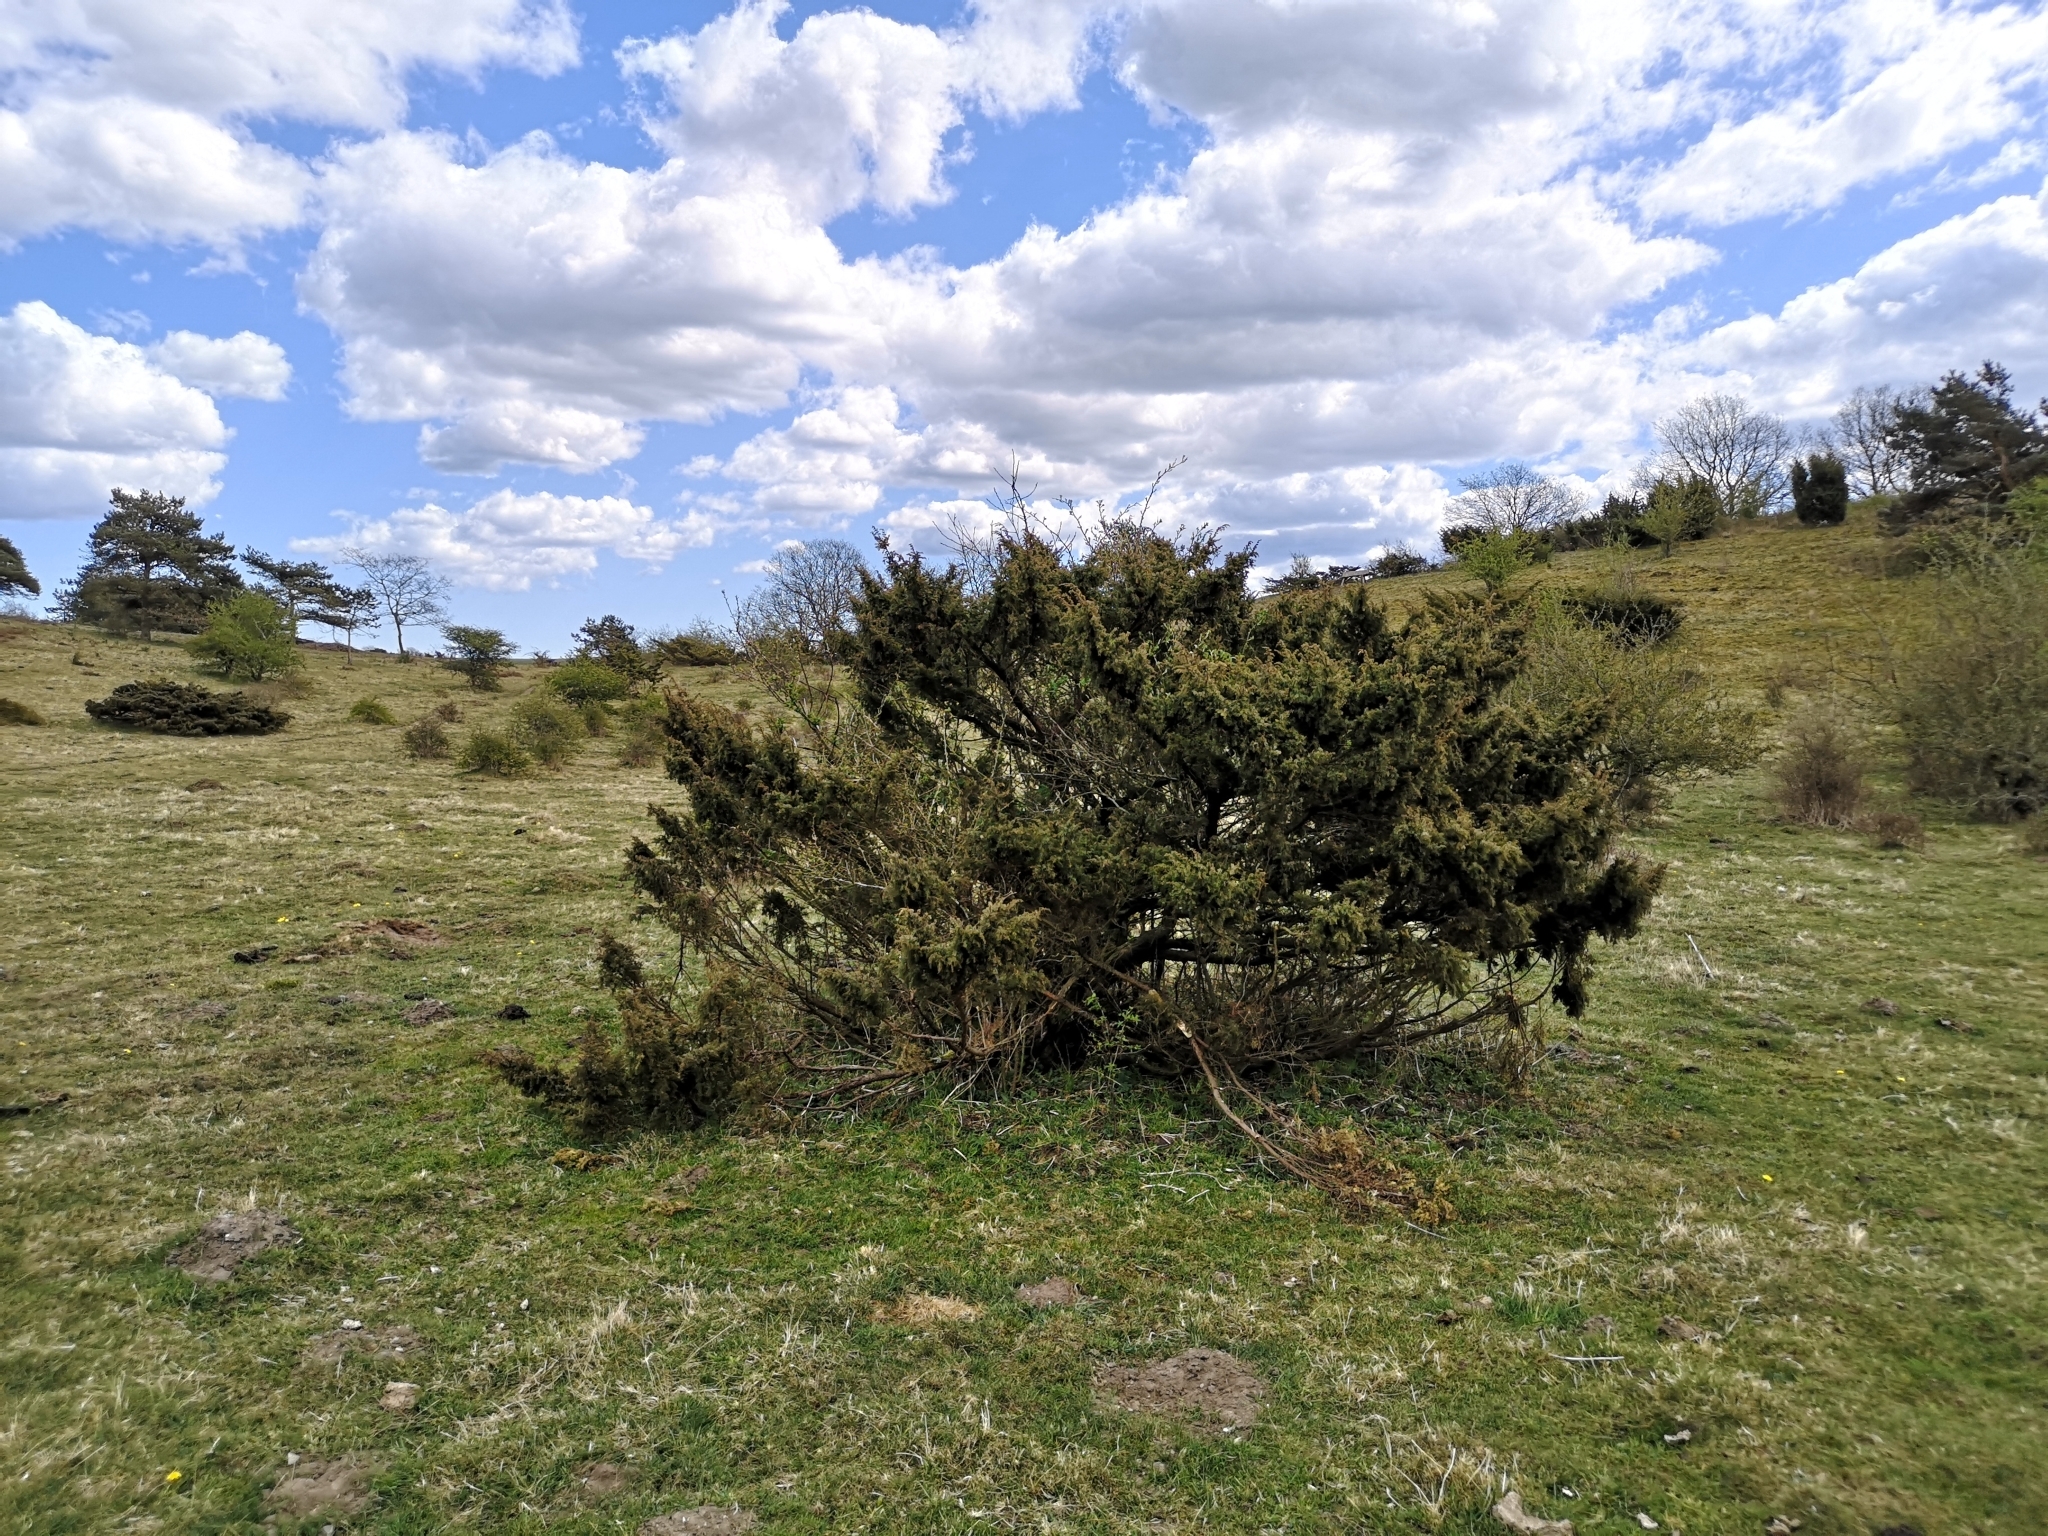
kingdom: Plantae
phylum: Tracheophyta
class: Pinopsida
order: Pinales
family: Cupressaceae
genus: Juniperus
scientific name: Juniperus communis
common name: Common juniper
